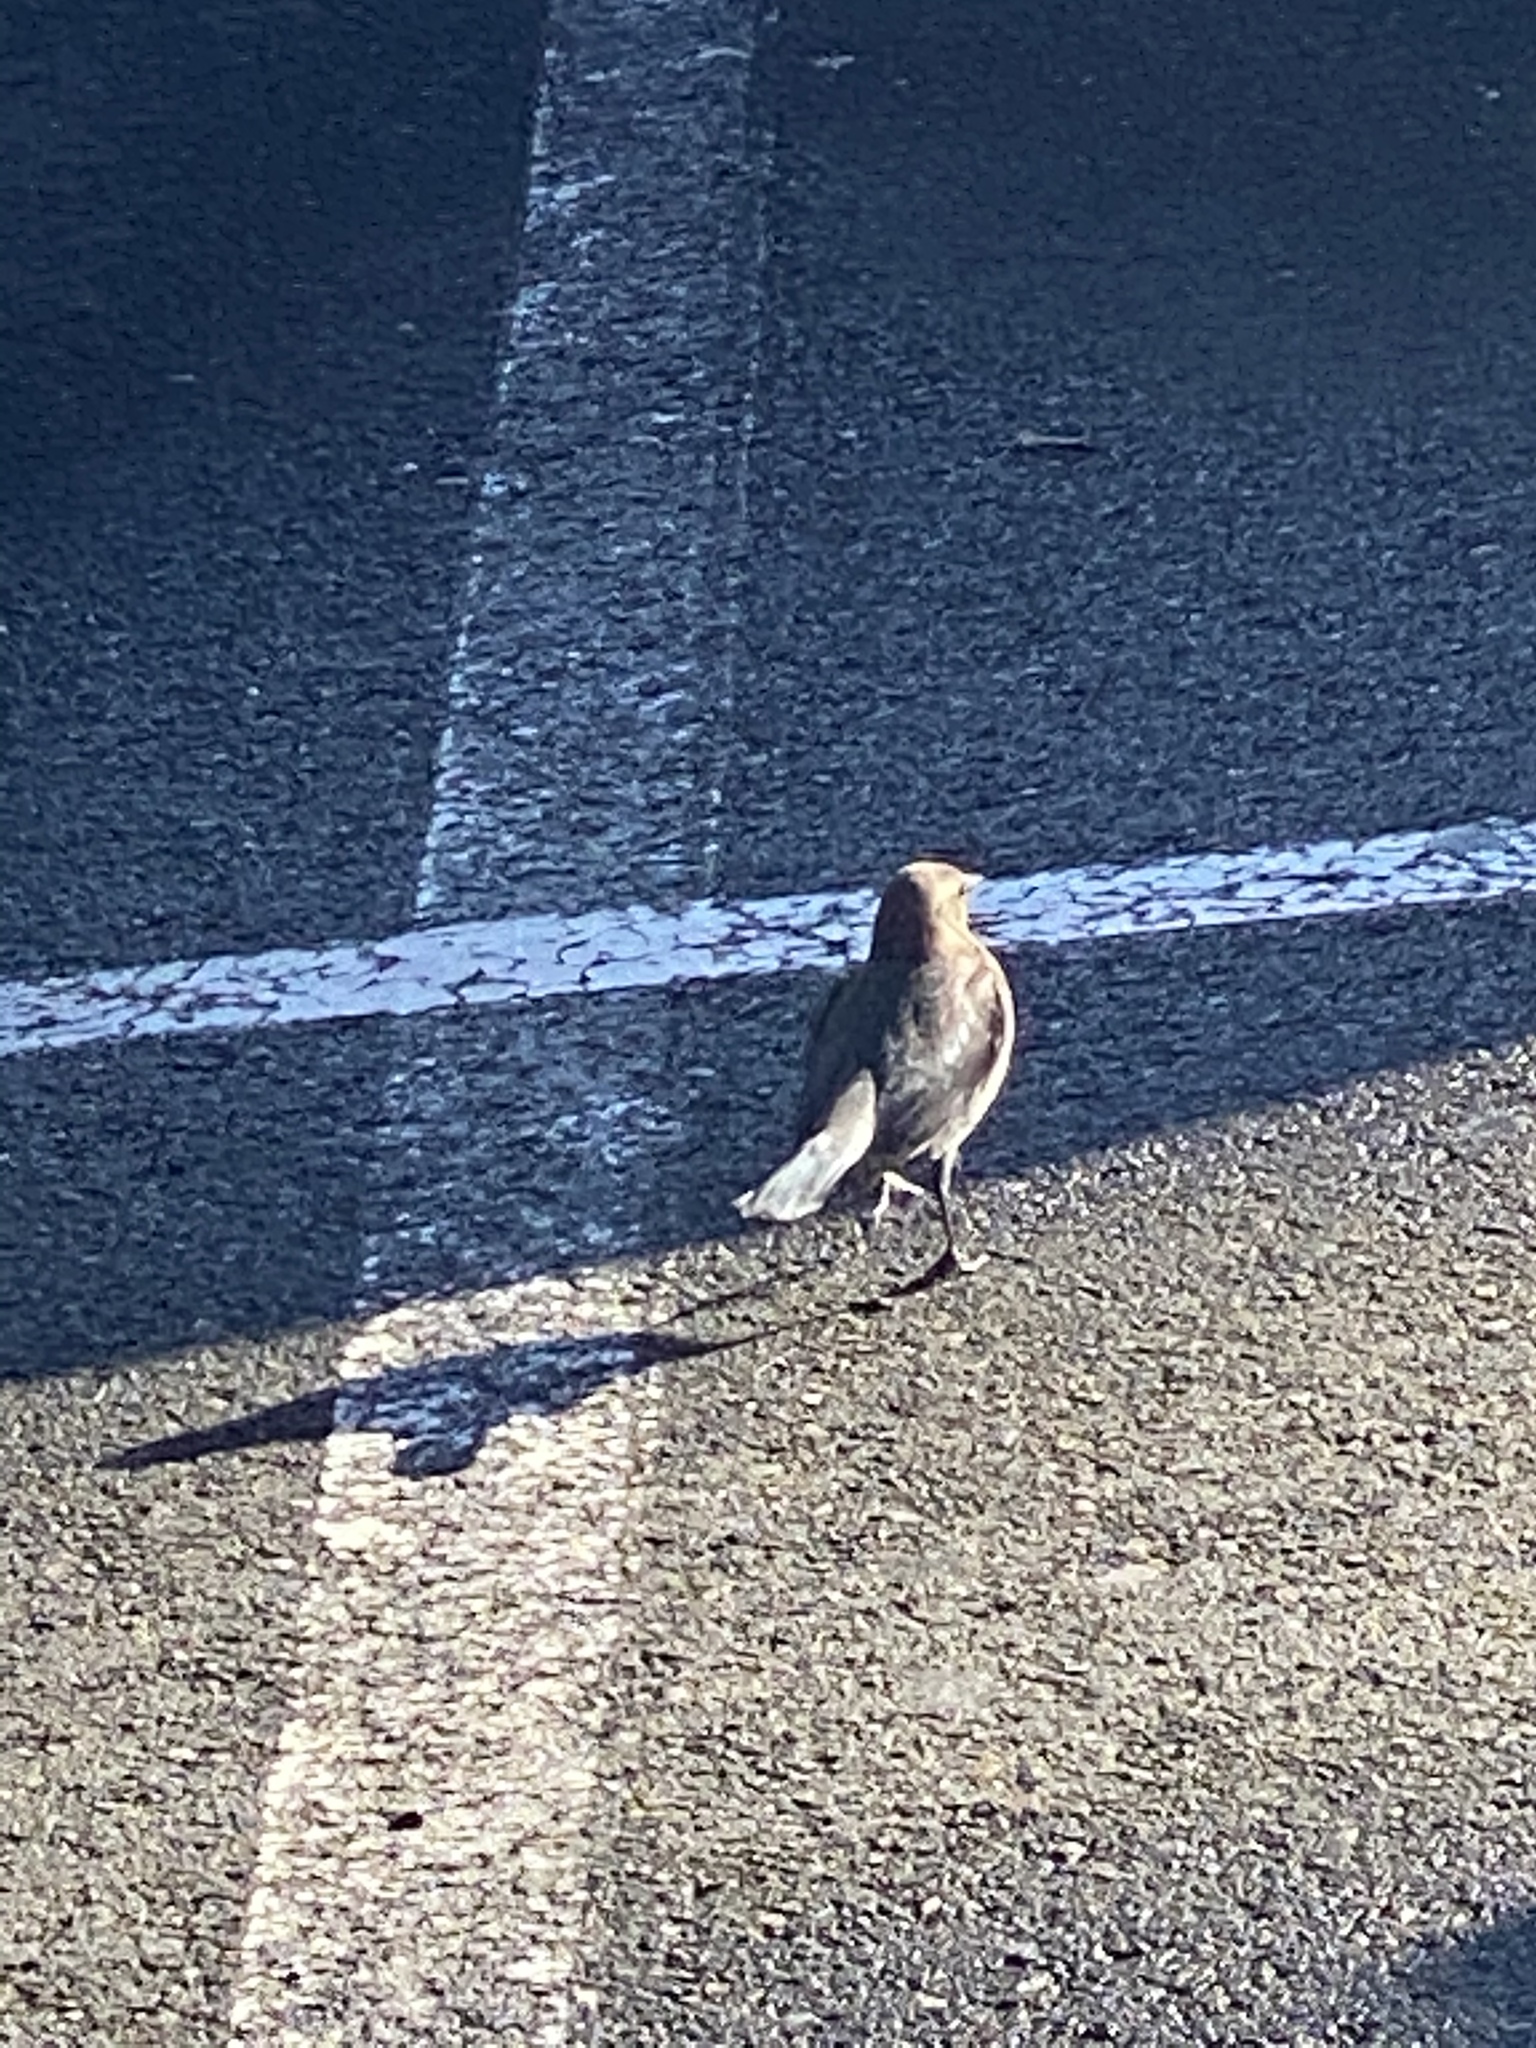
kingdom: Animalia
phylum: Chordata
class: Aves
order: Passeriformes
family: Icteridae
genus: Euphagus
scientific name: Euphagus cyanocephalus
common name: Brewer's blackbird
